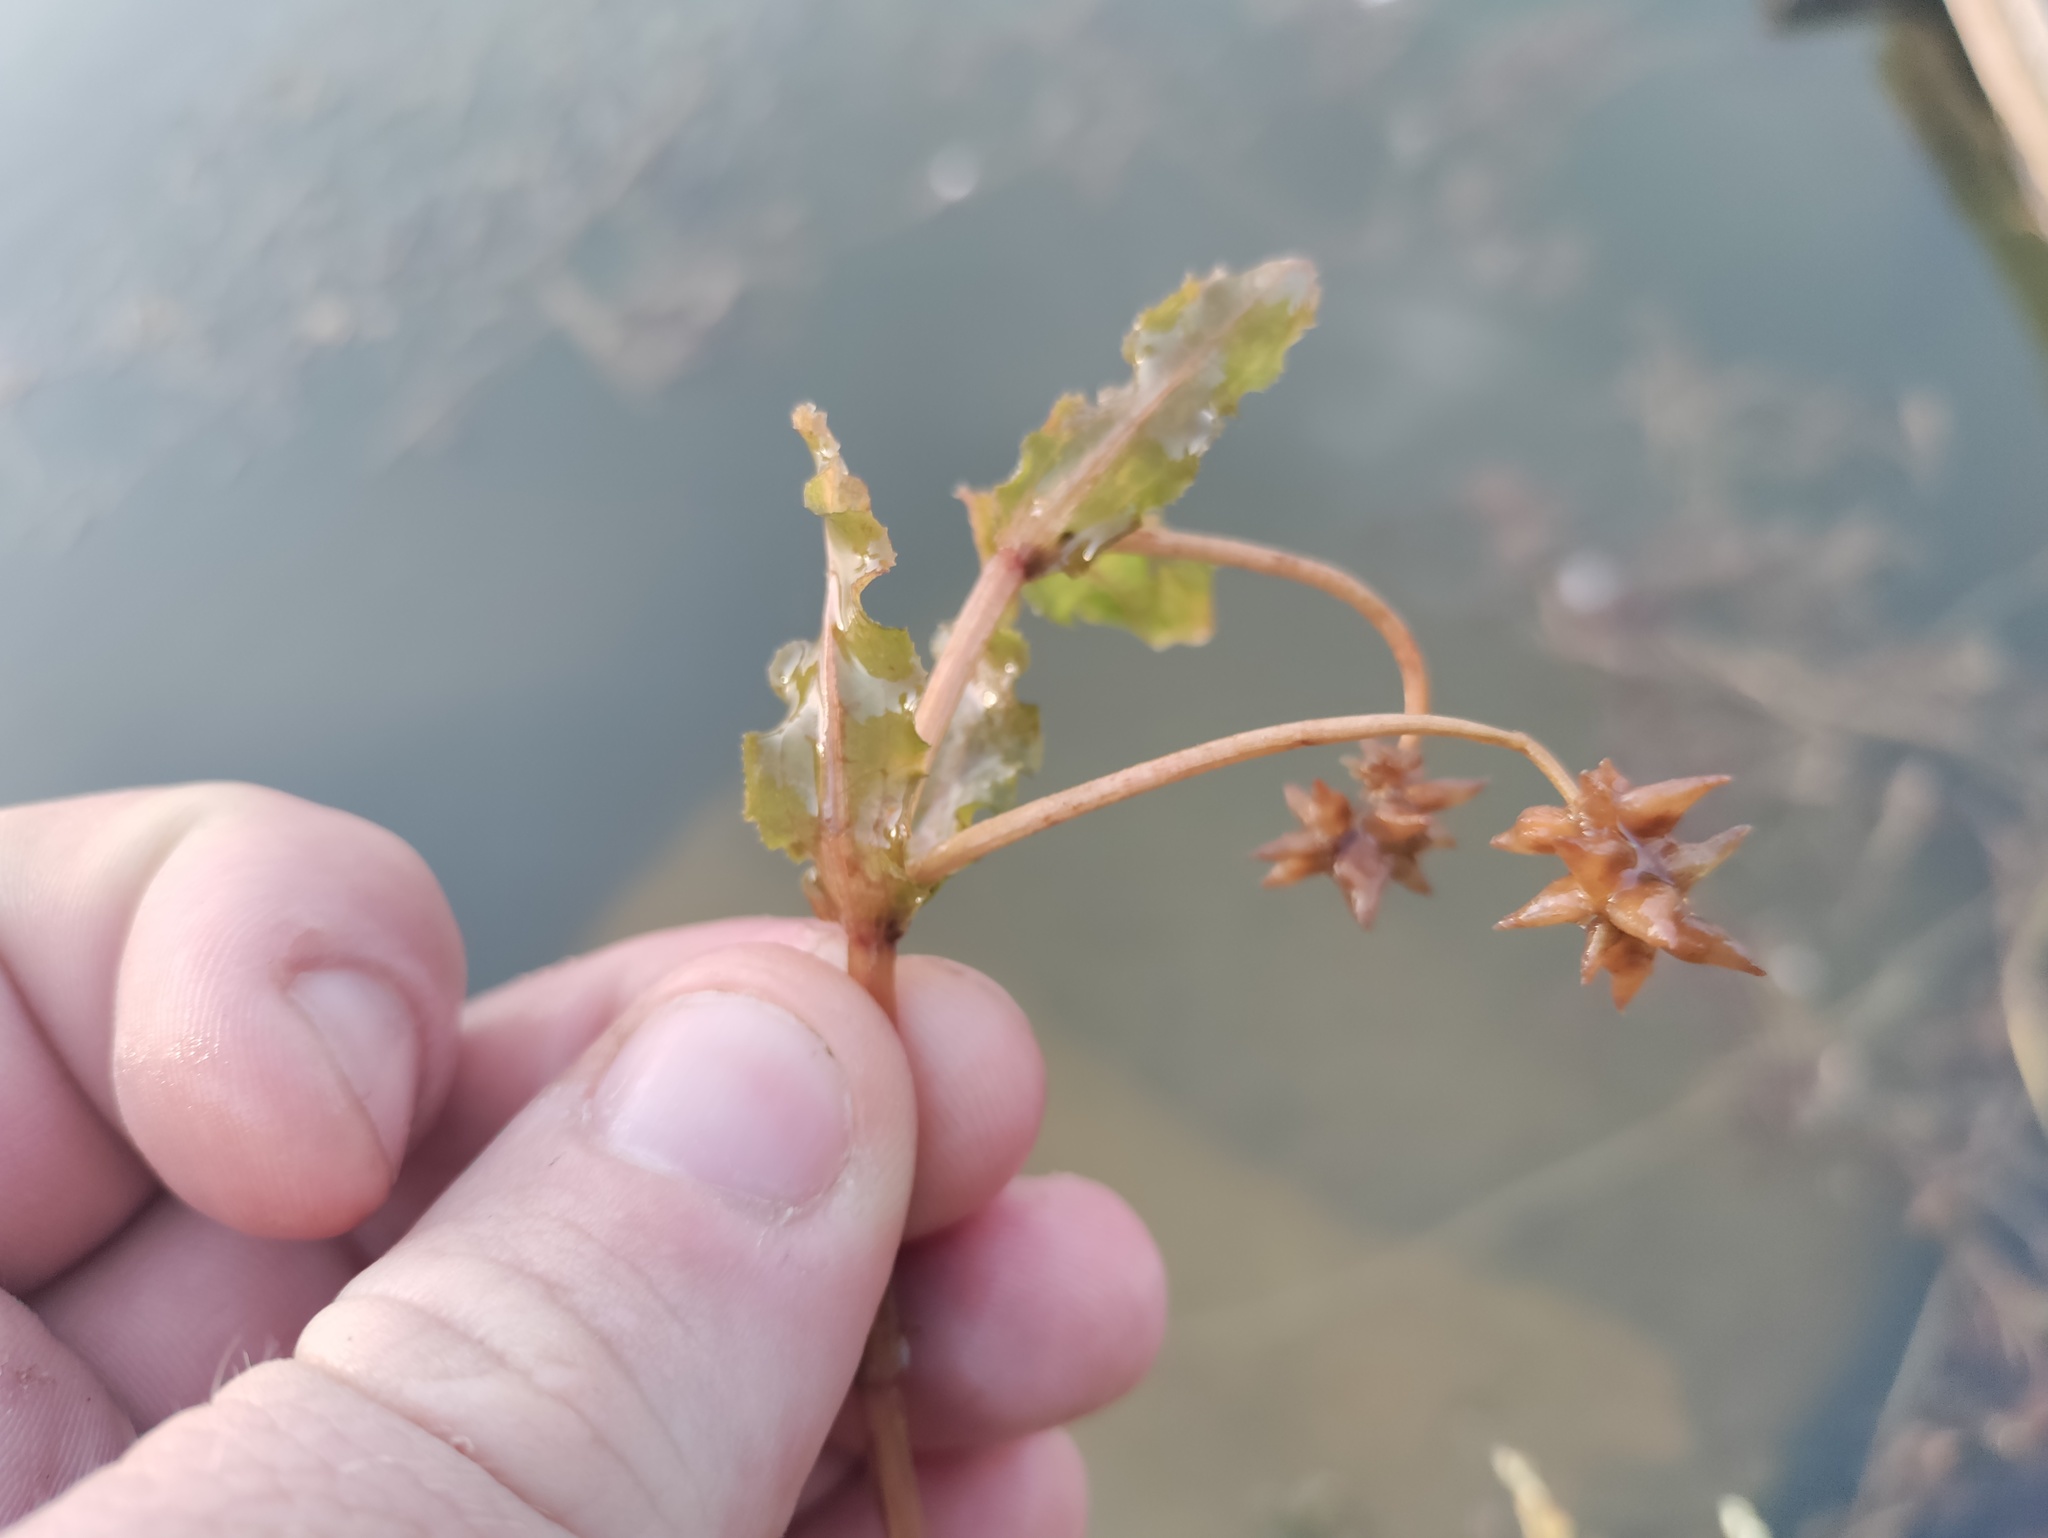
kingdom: Plantae
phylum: Tracheophyta
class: Liliopsida
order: Alismatales
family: Potamogetonaceae
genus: Potamogeton
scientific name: Potamogeton crispus
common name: Curled pondweed
